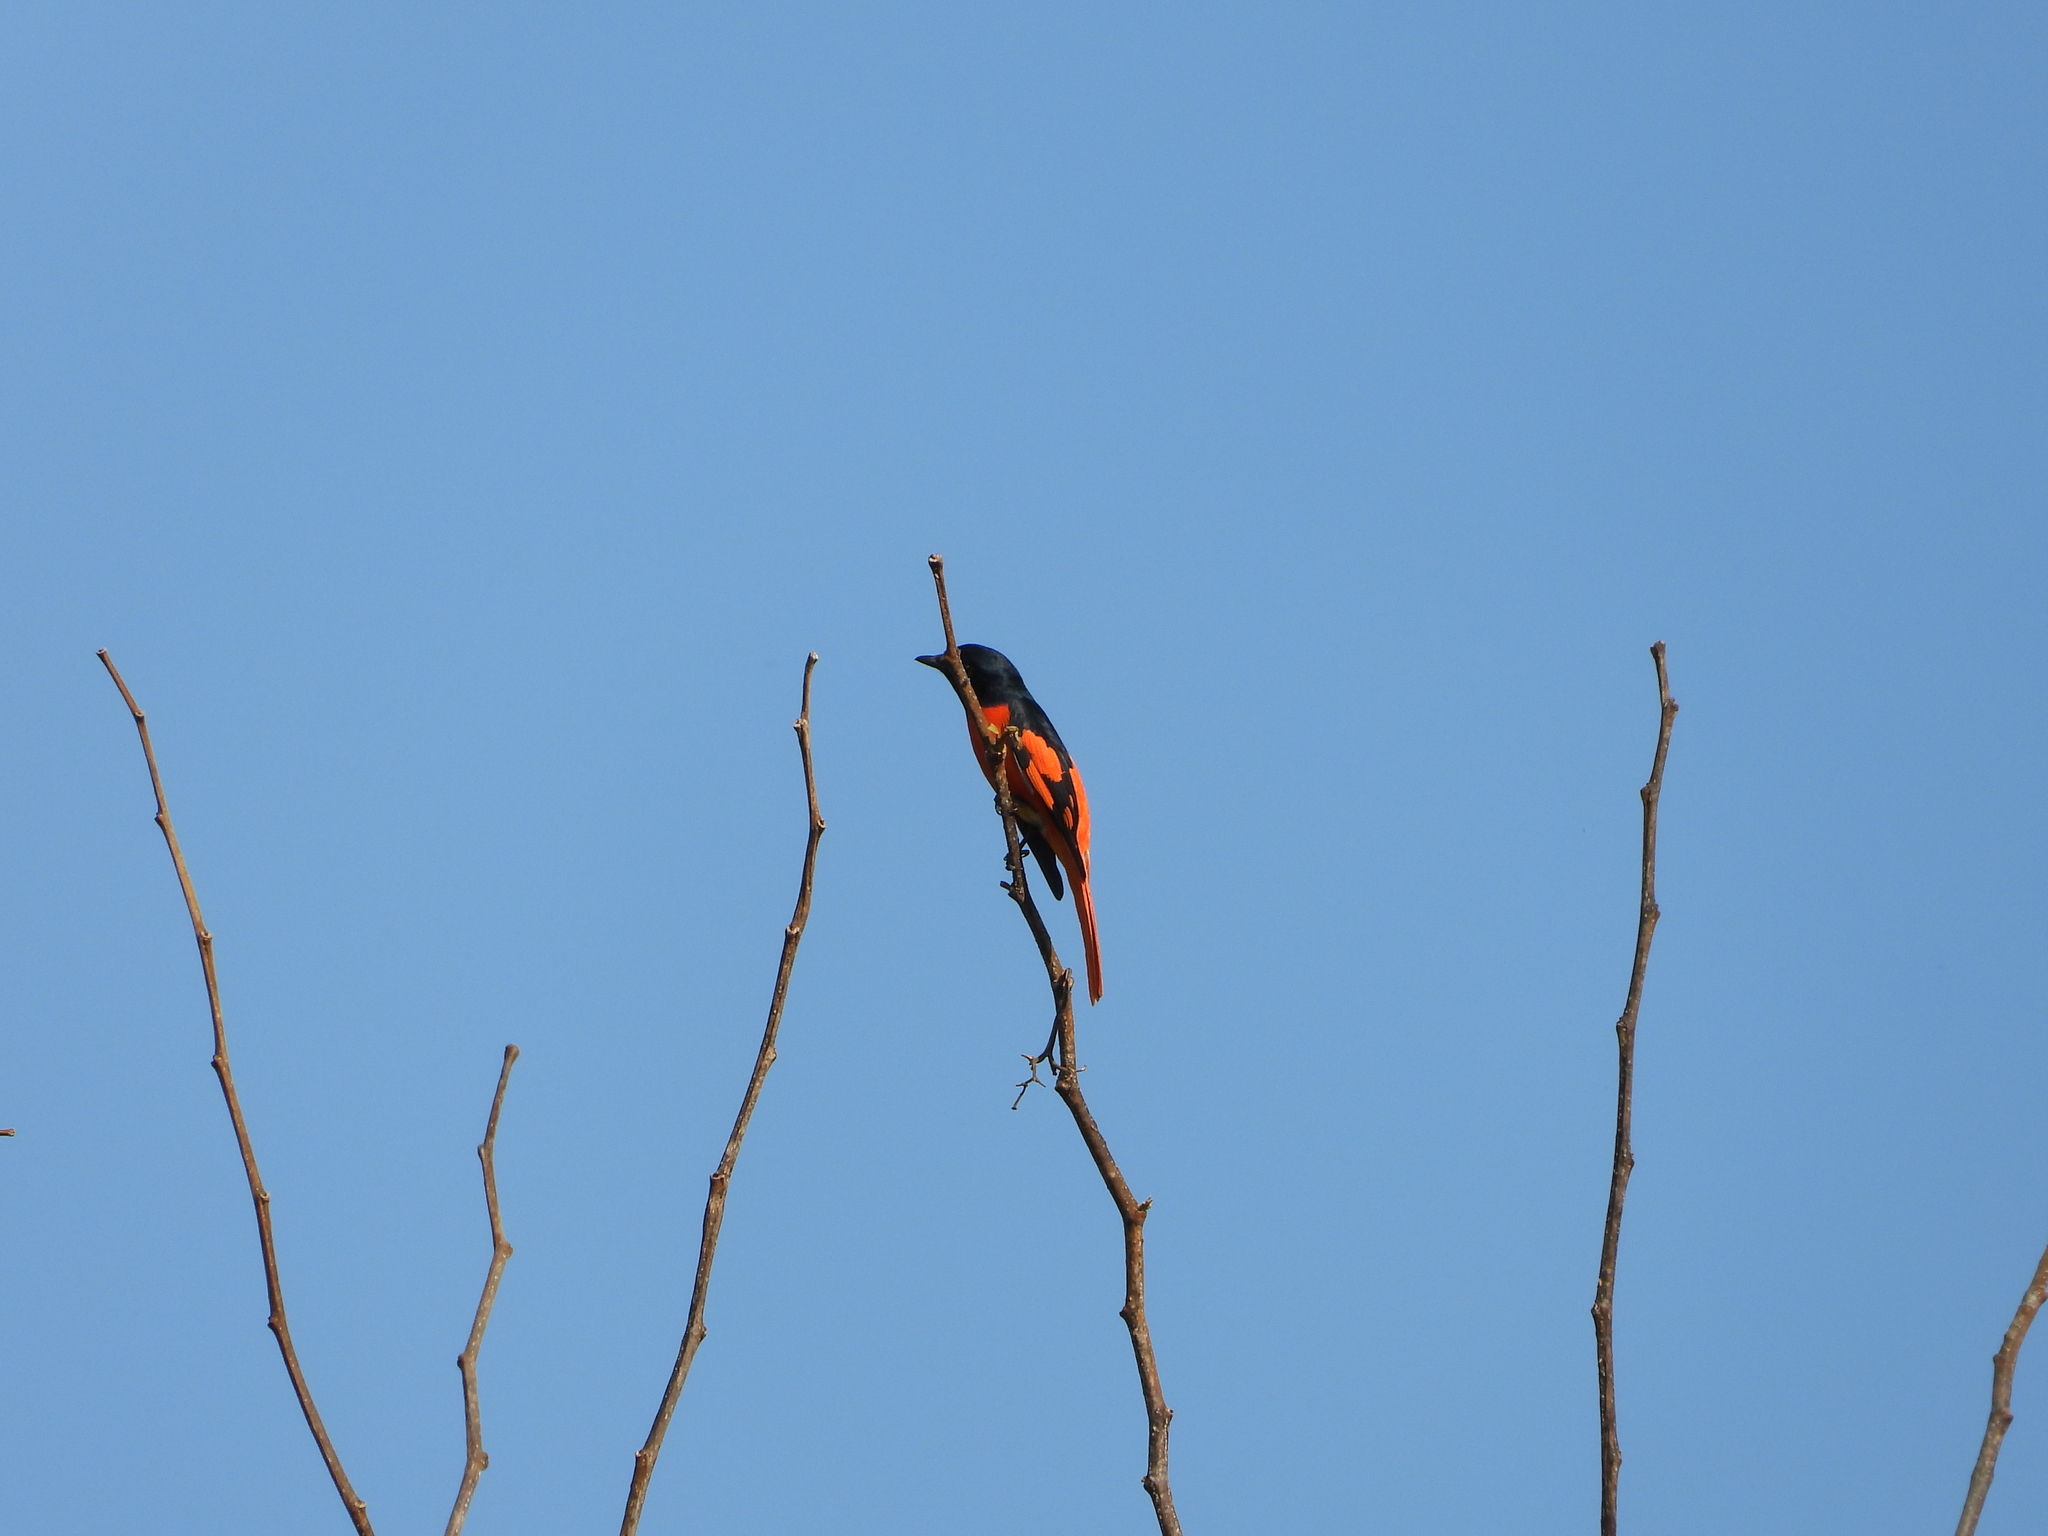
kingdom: Animalia
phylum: Chordata
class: Aves
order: Passeriformes
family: Campephagidae
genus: Pericrocotus
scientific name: Pericrocotus speciosus
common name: Scarlet minivet
